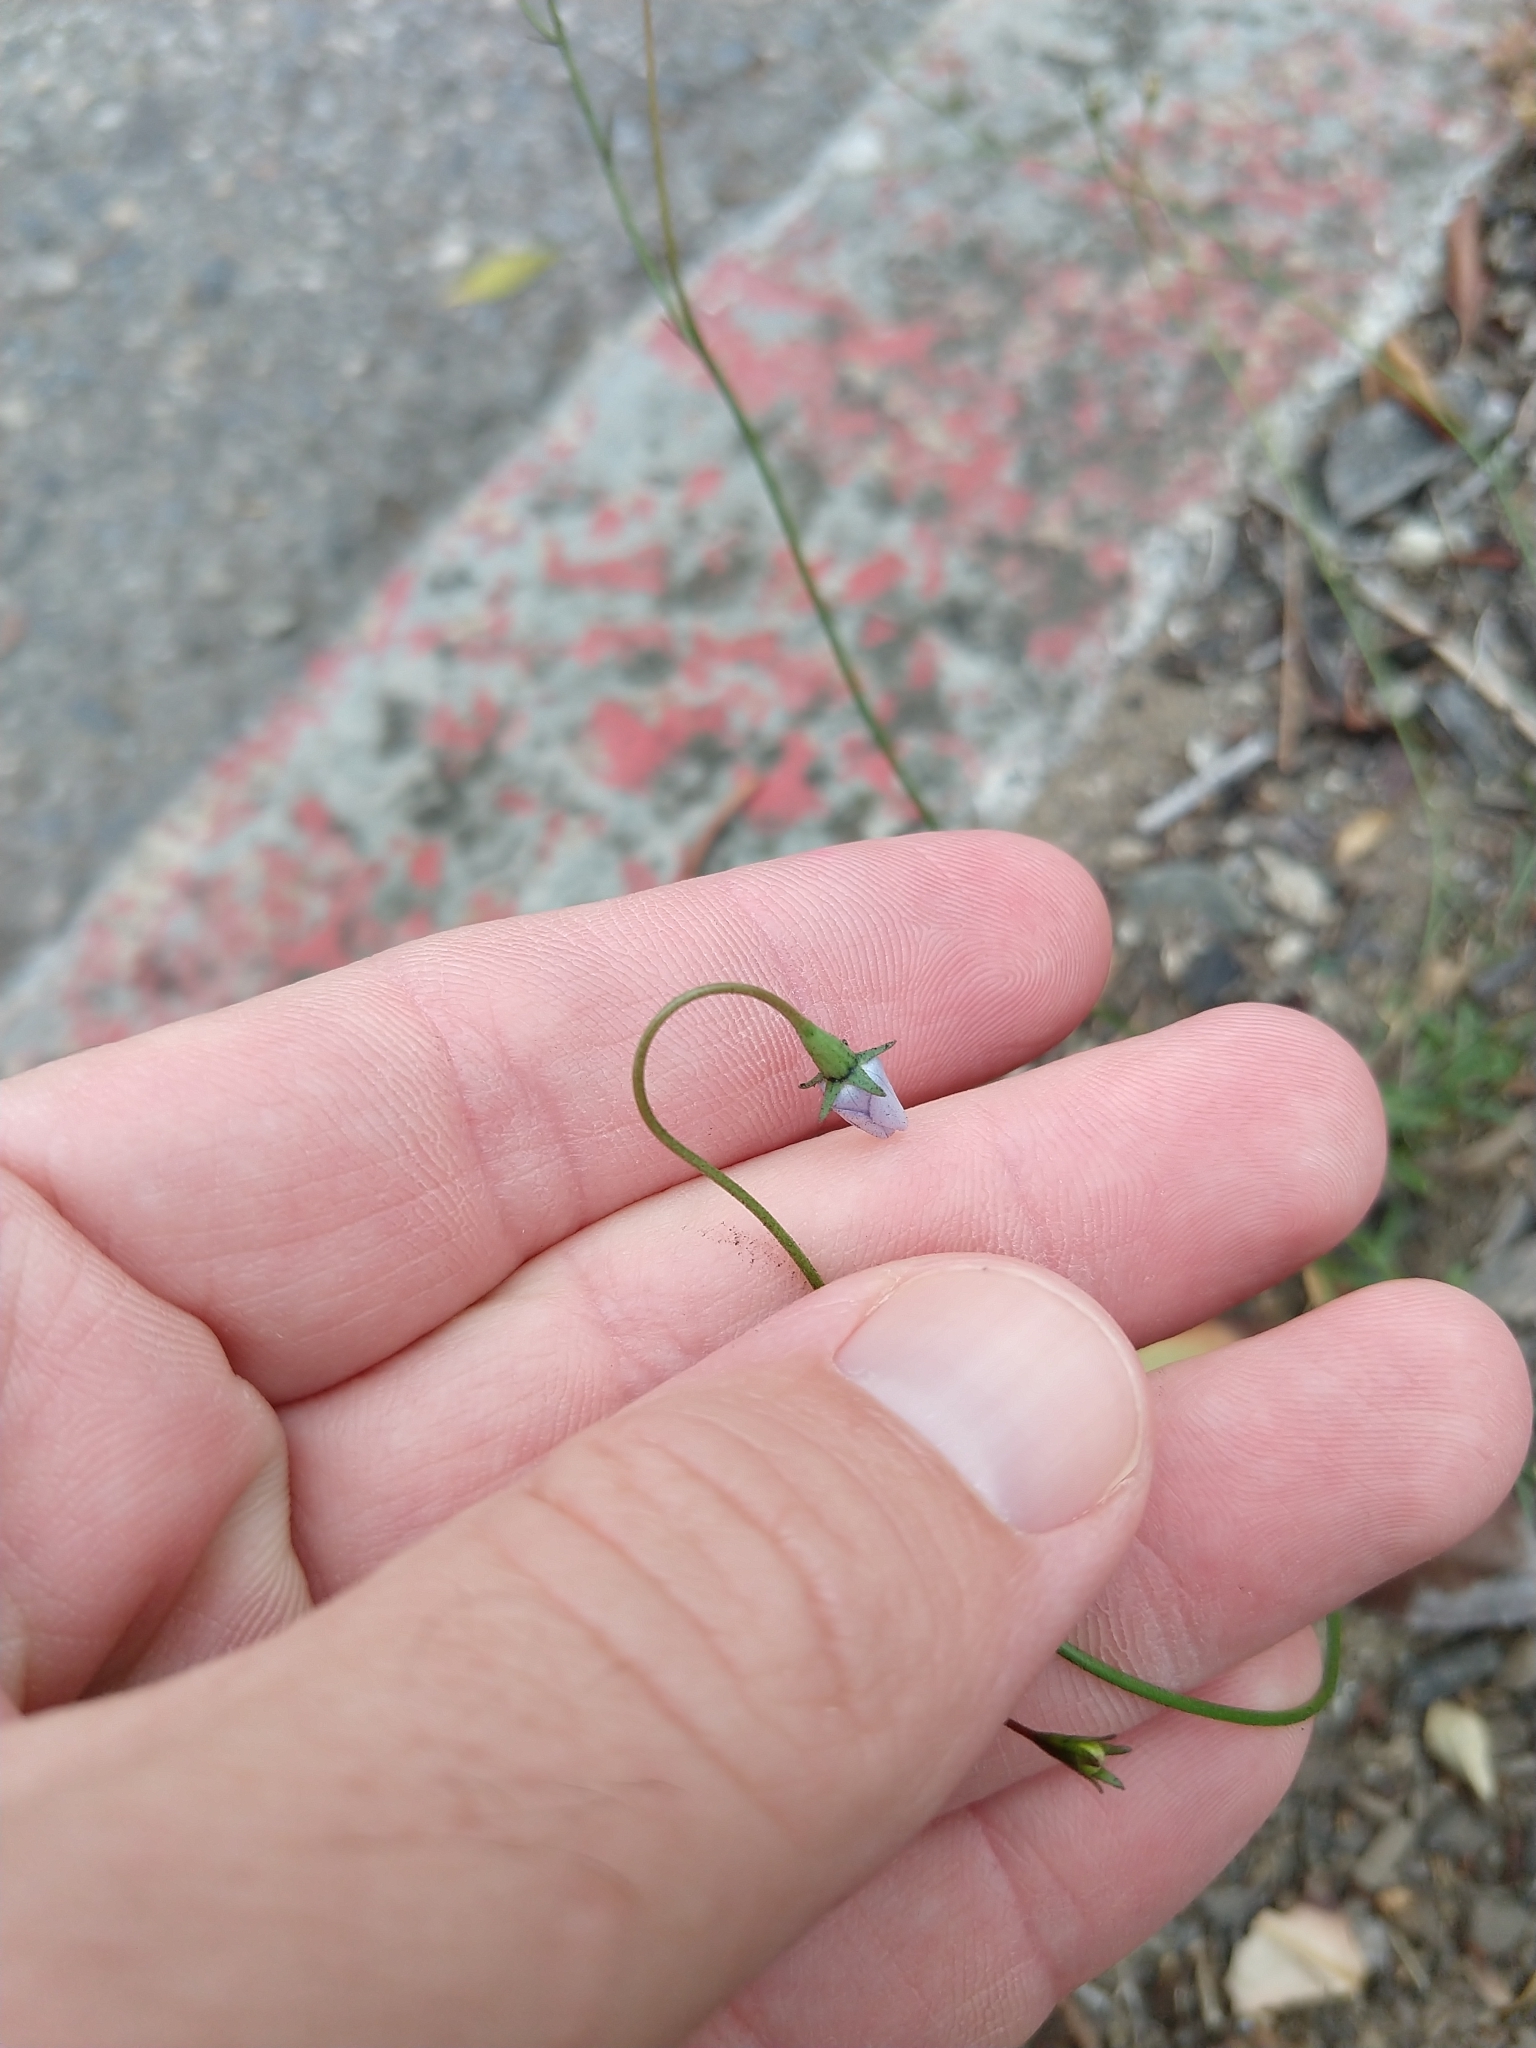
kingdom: Plantae
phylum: Tracheophyta
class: Magnoliopsida
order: Asterales
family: Campanulaceae
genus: Wahlenbergia
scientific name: Wahlenbergia marginata
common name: Southern rockbell
